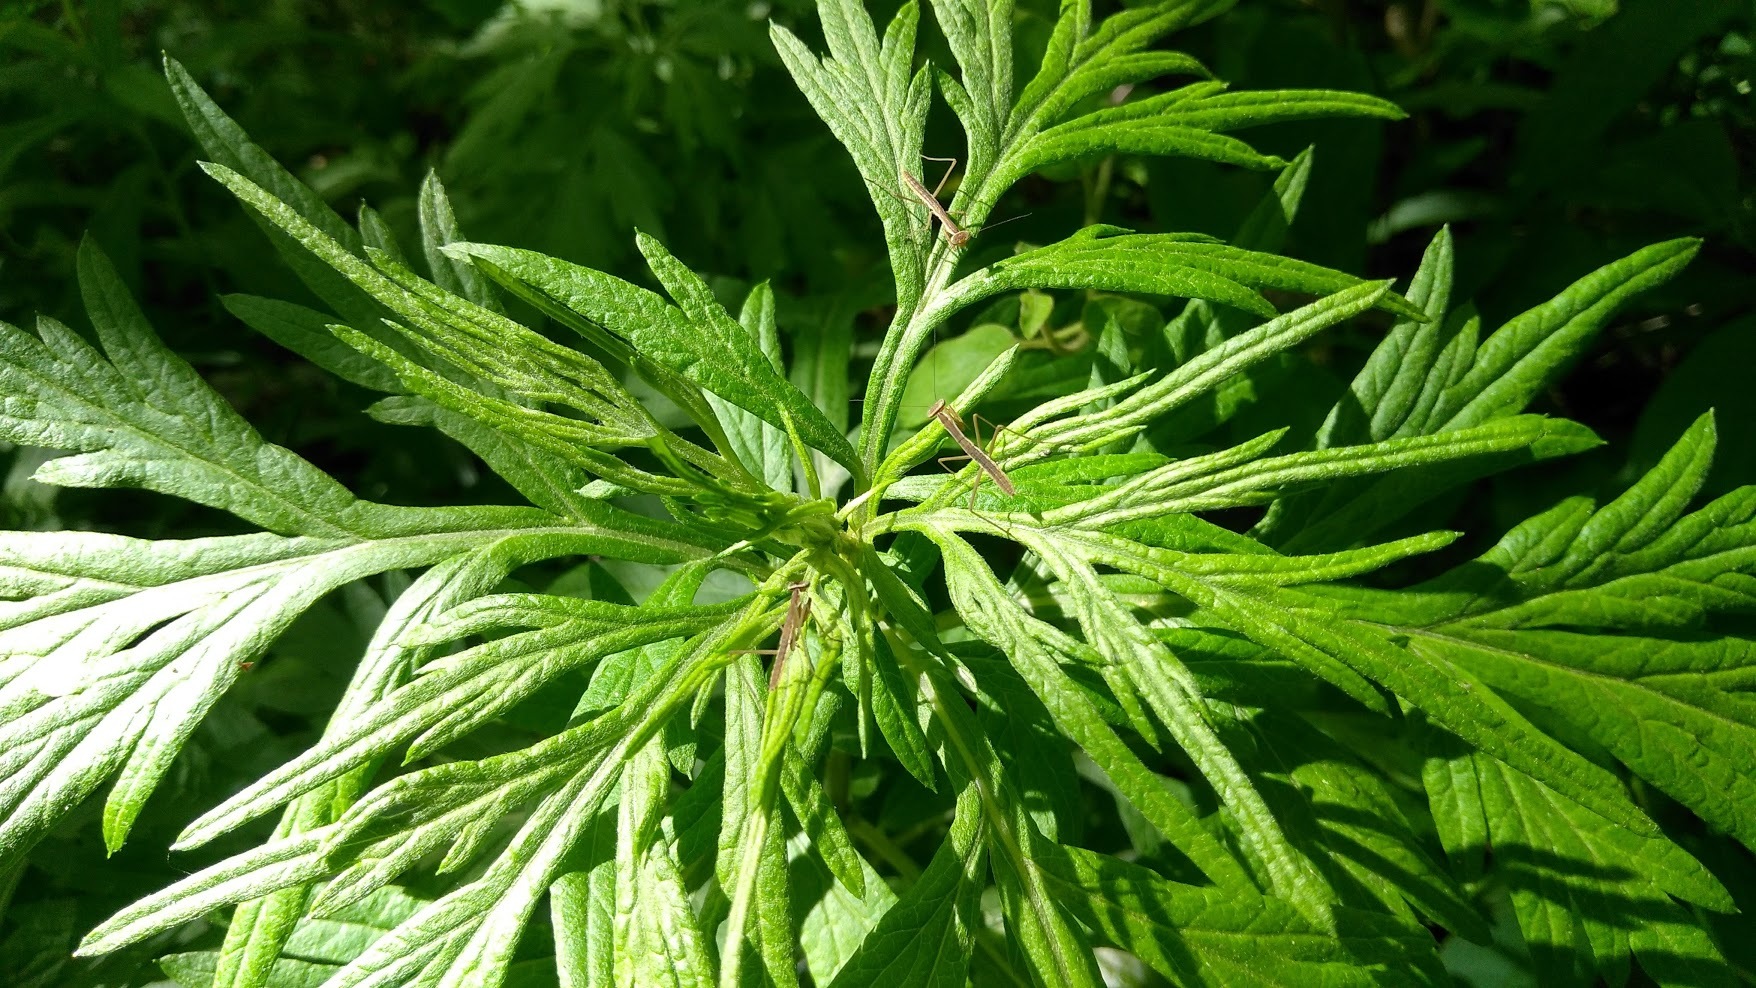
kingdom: Animalia
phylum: Arthropoda
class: Insecta
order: Mantodea
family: Mantidae
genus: Tenodera
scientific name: Tenodera sinensis
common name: Chinese mantis
